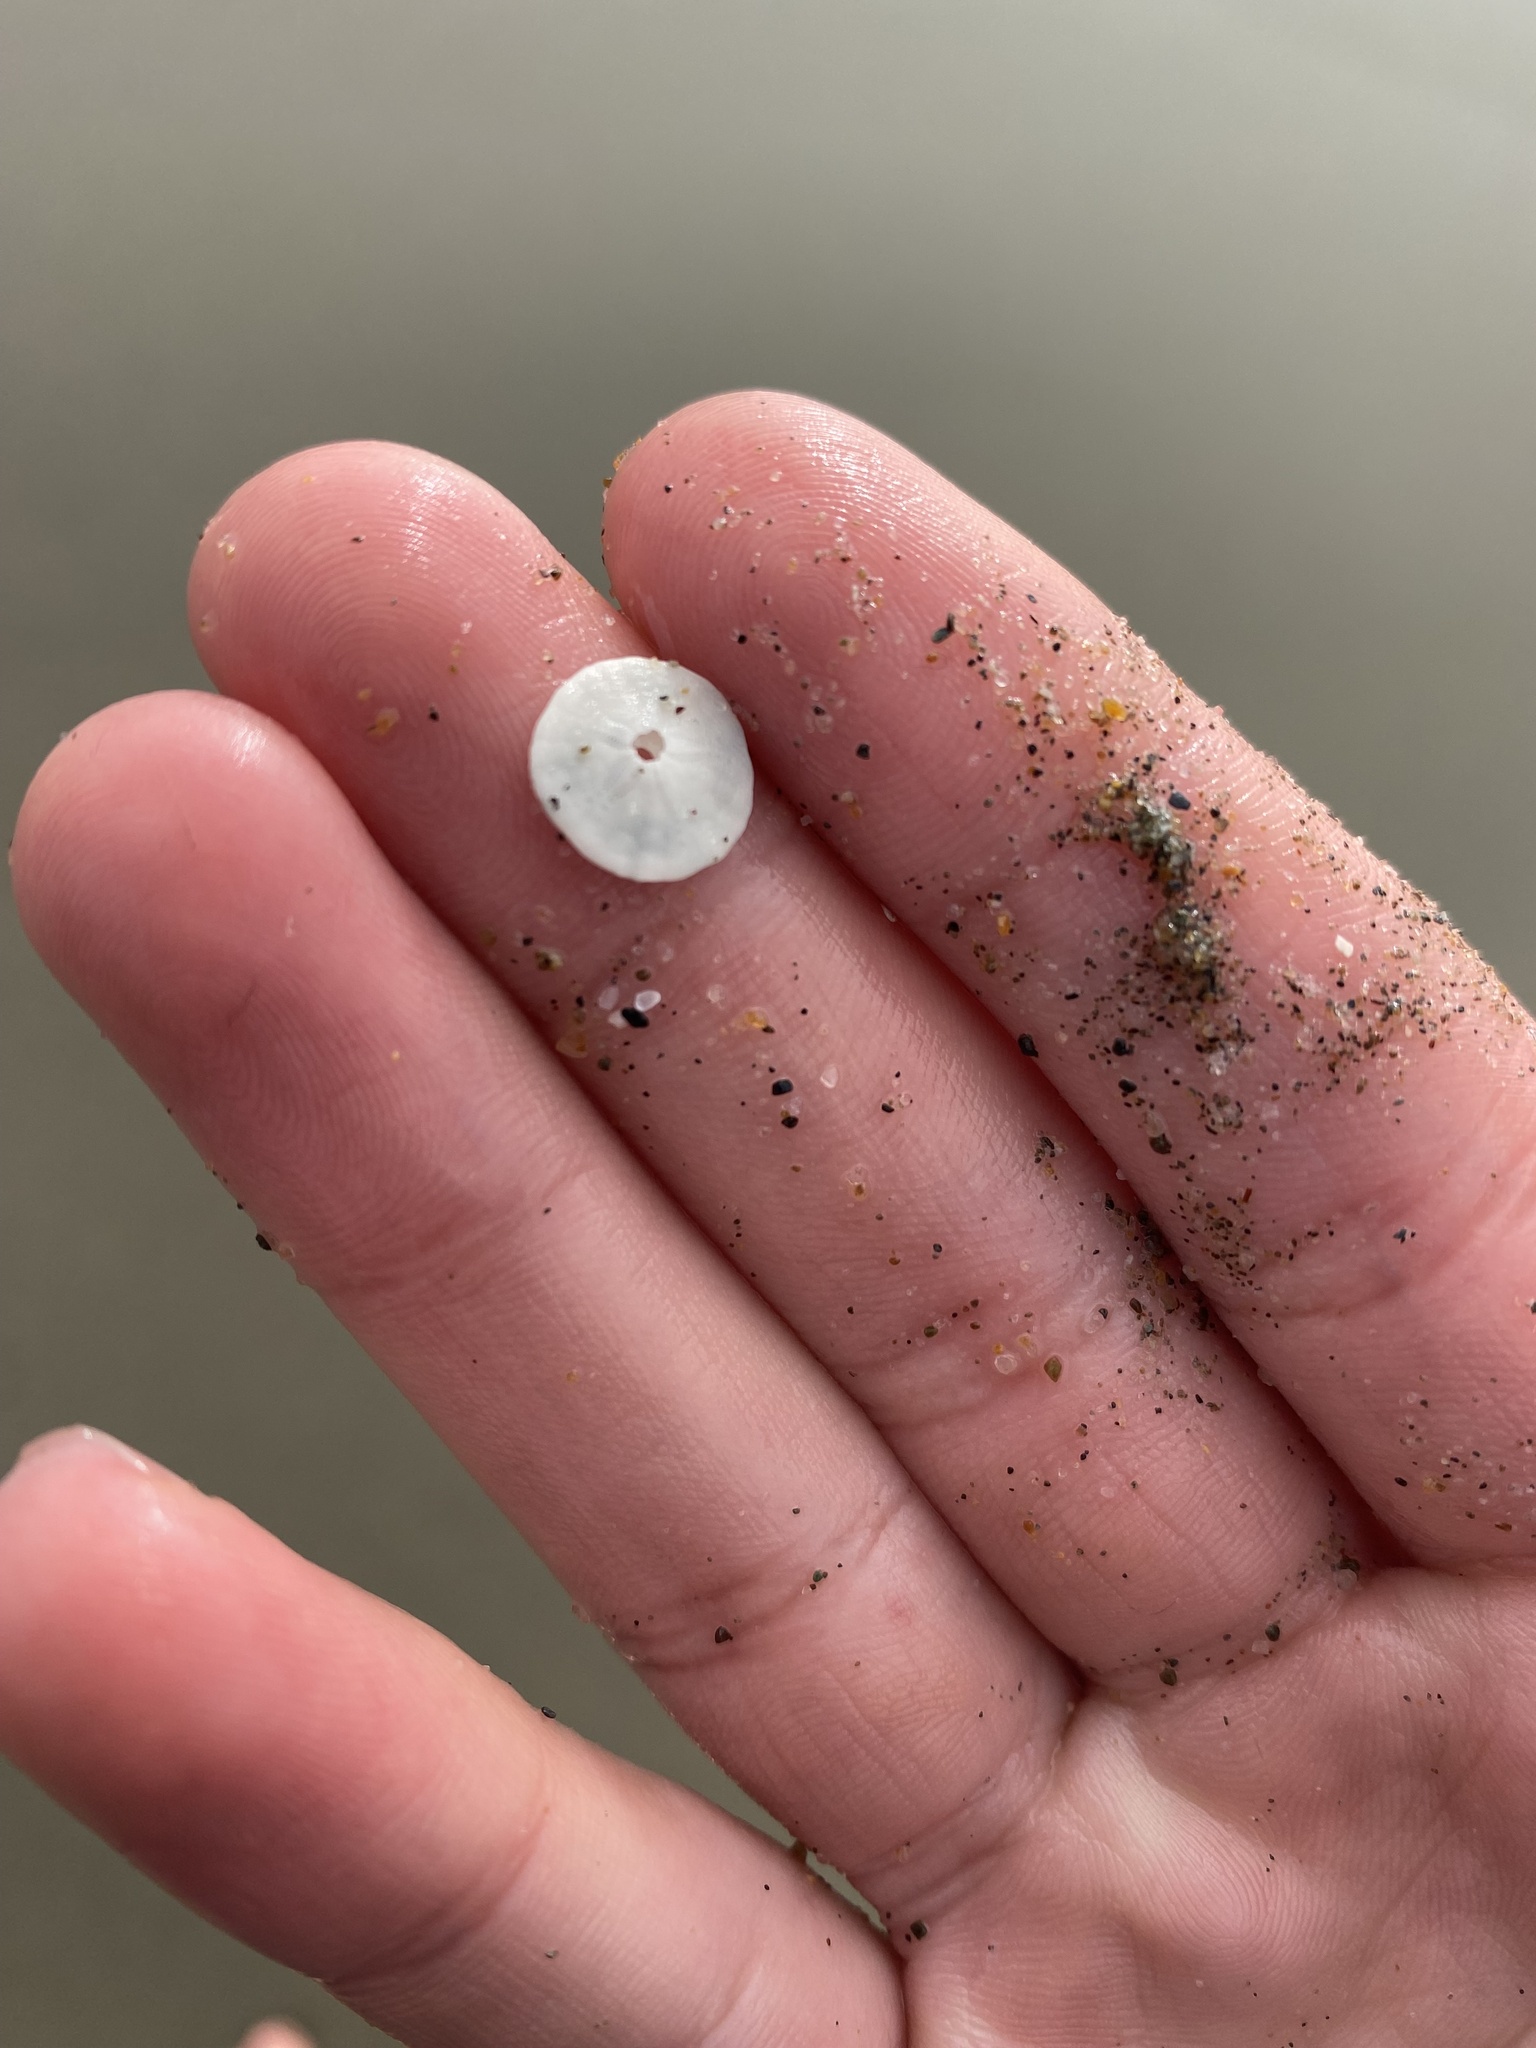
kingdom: Animalia
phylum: Echinodermata
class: Echinoidea
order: Echinolampadacea
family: Dendrasteridae
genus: Dendraster
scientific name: Dendraster excentricus
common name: Eccentric sand dollar sea urchin
